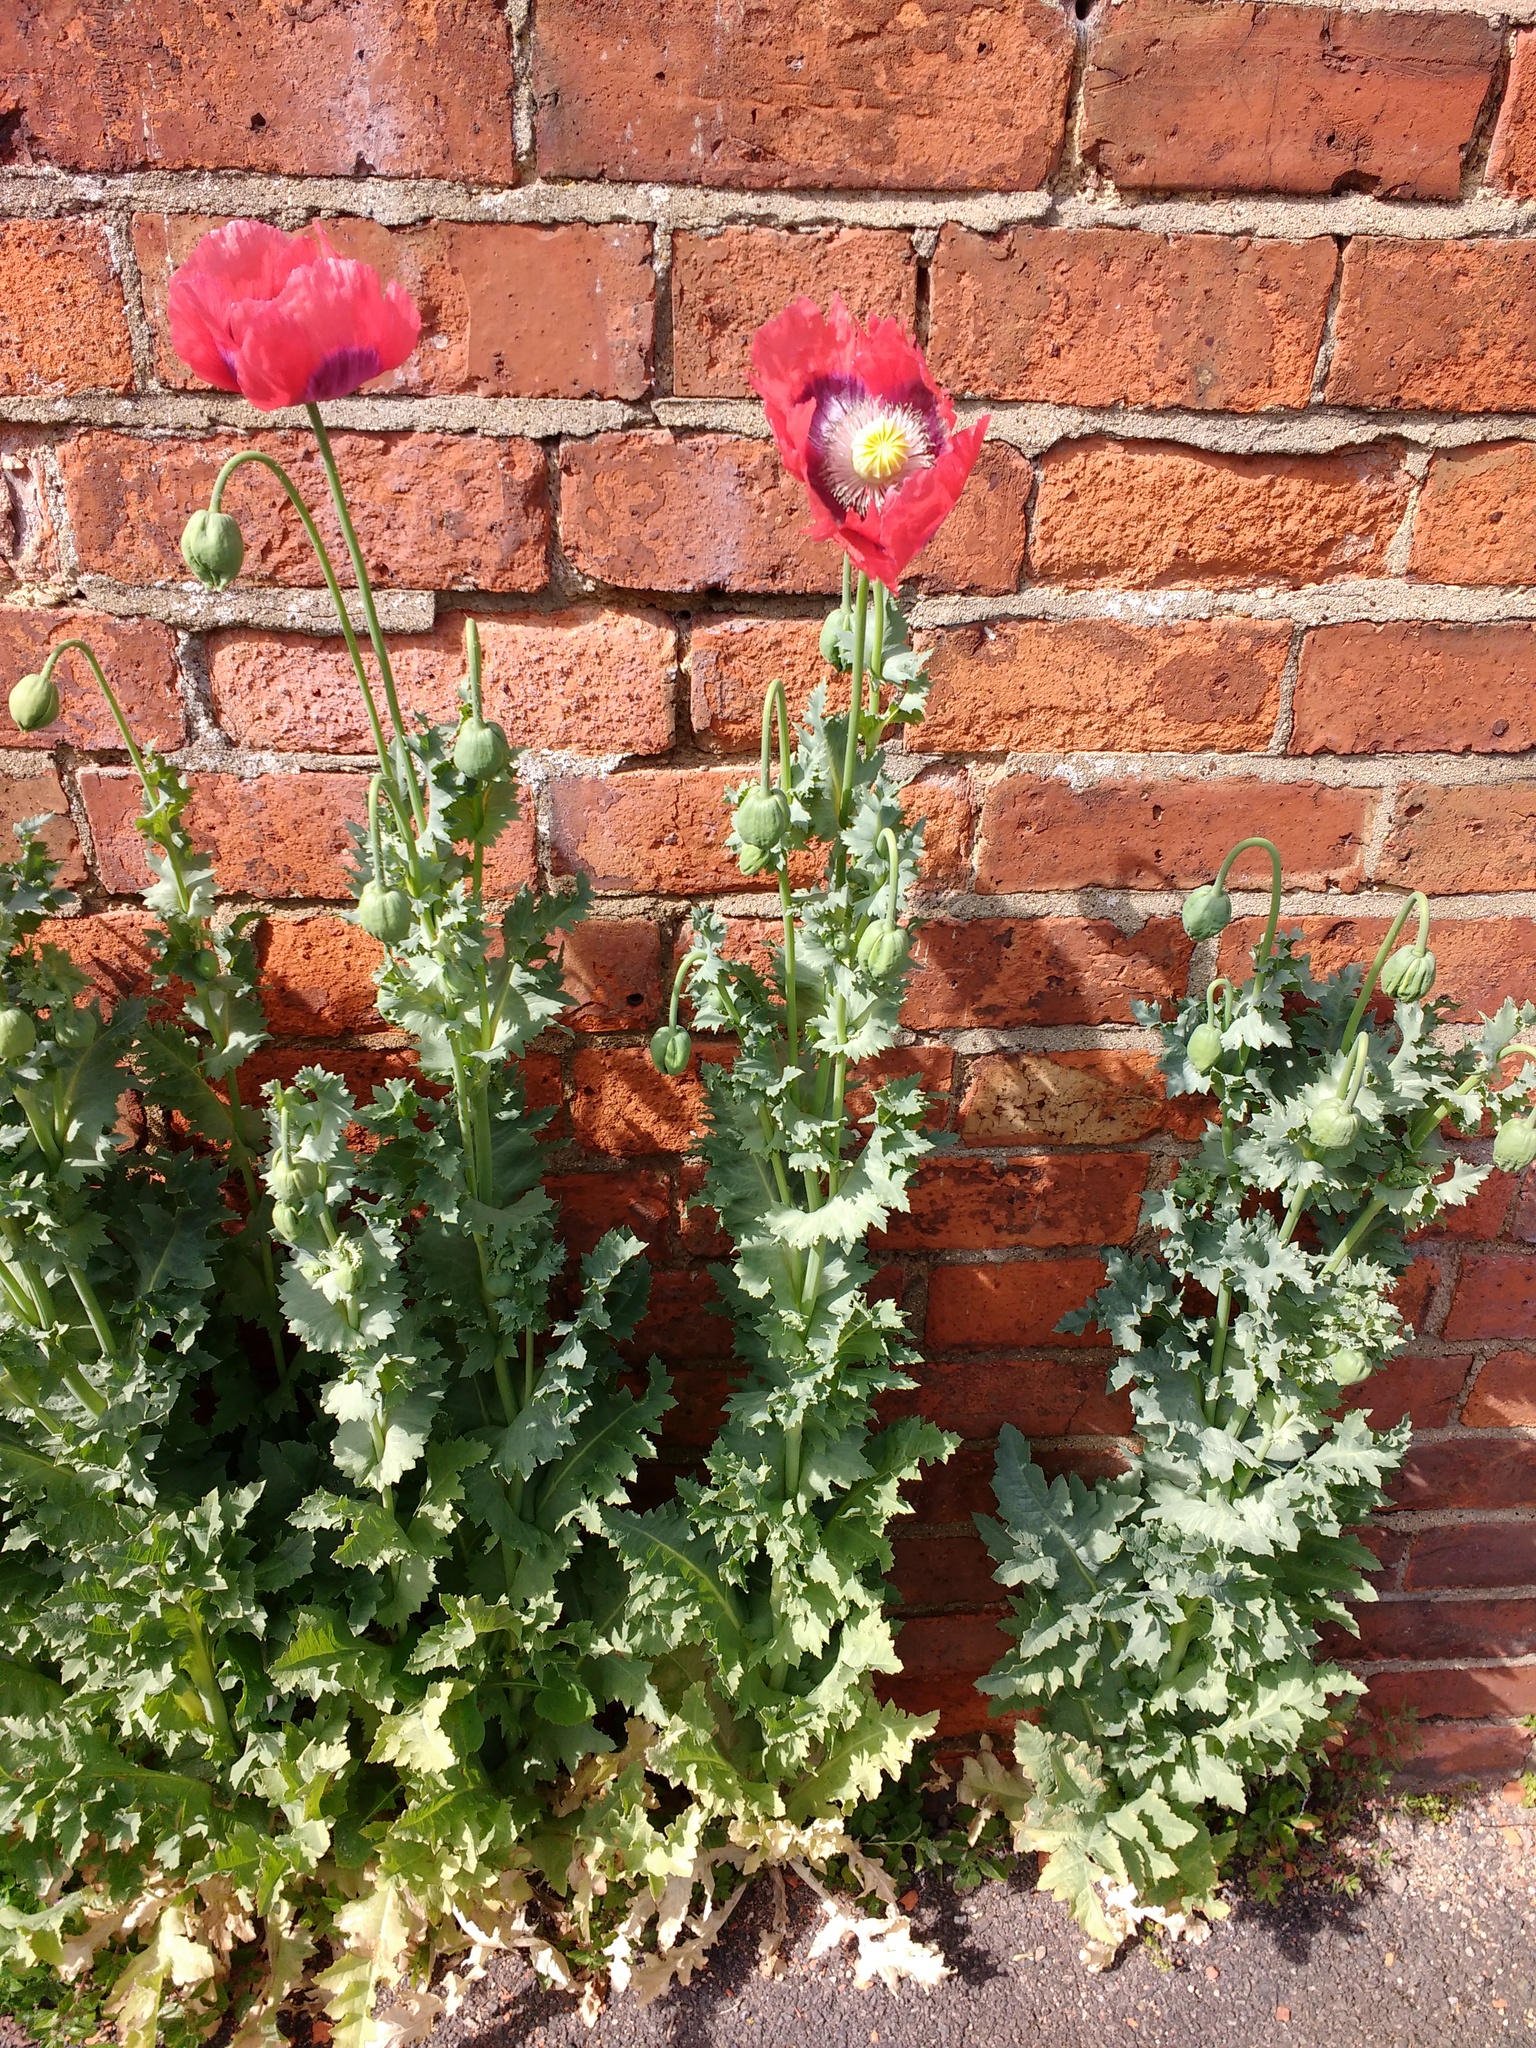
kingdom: Plantae
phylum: Tracheophyta
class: Magnoliopsida
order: Ranunculales
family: Papaveraceae
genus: Papaver
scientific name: Papaver somniferum
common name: Opium poppy
